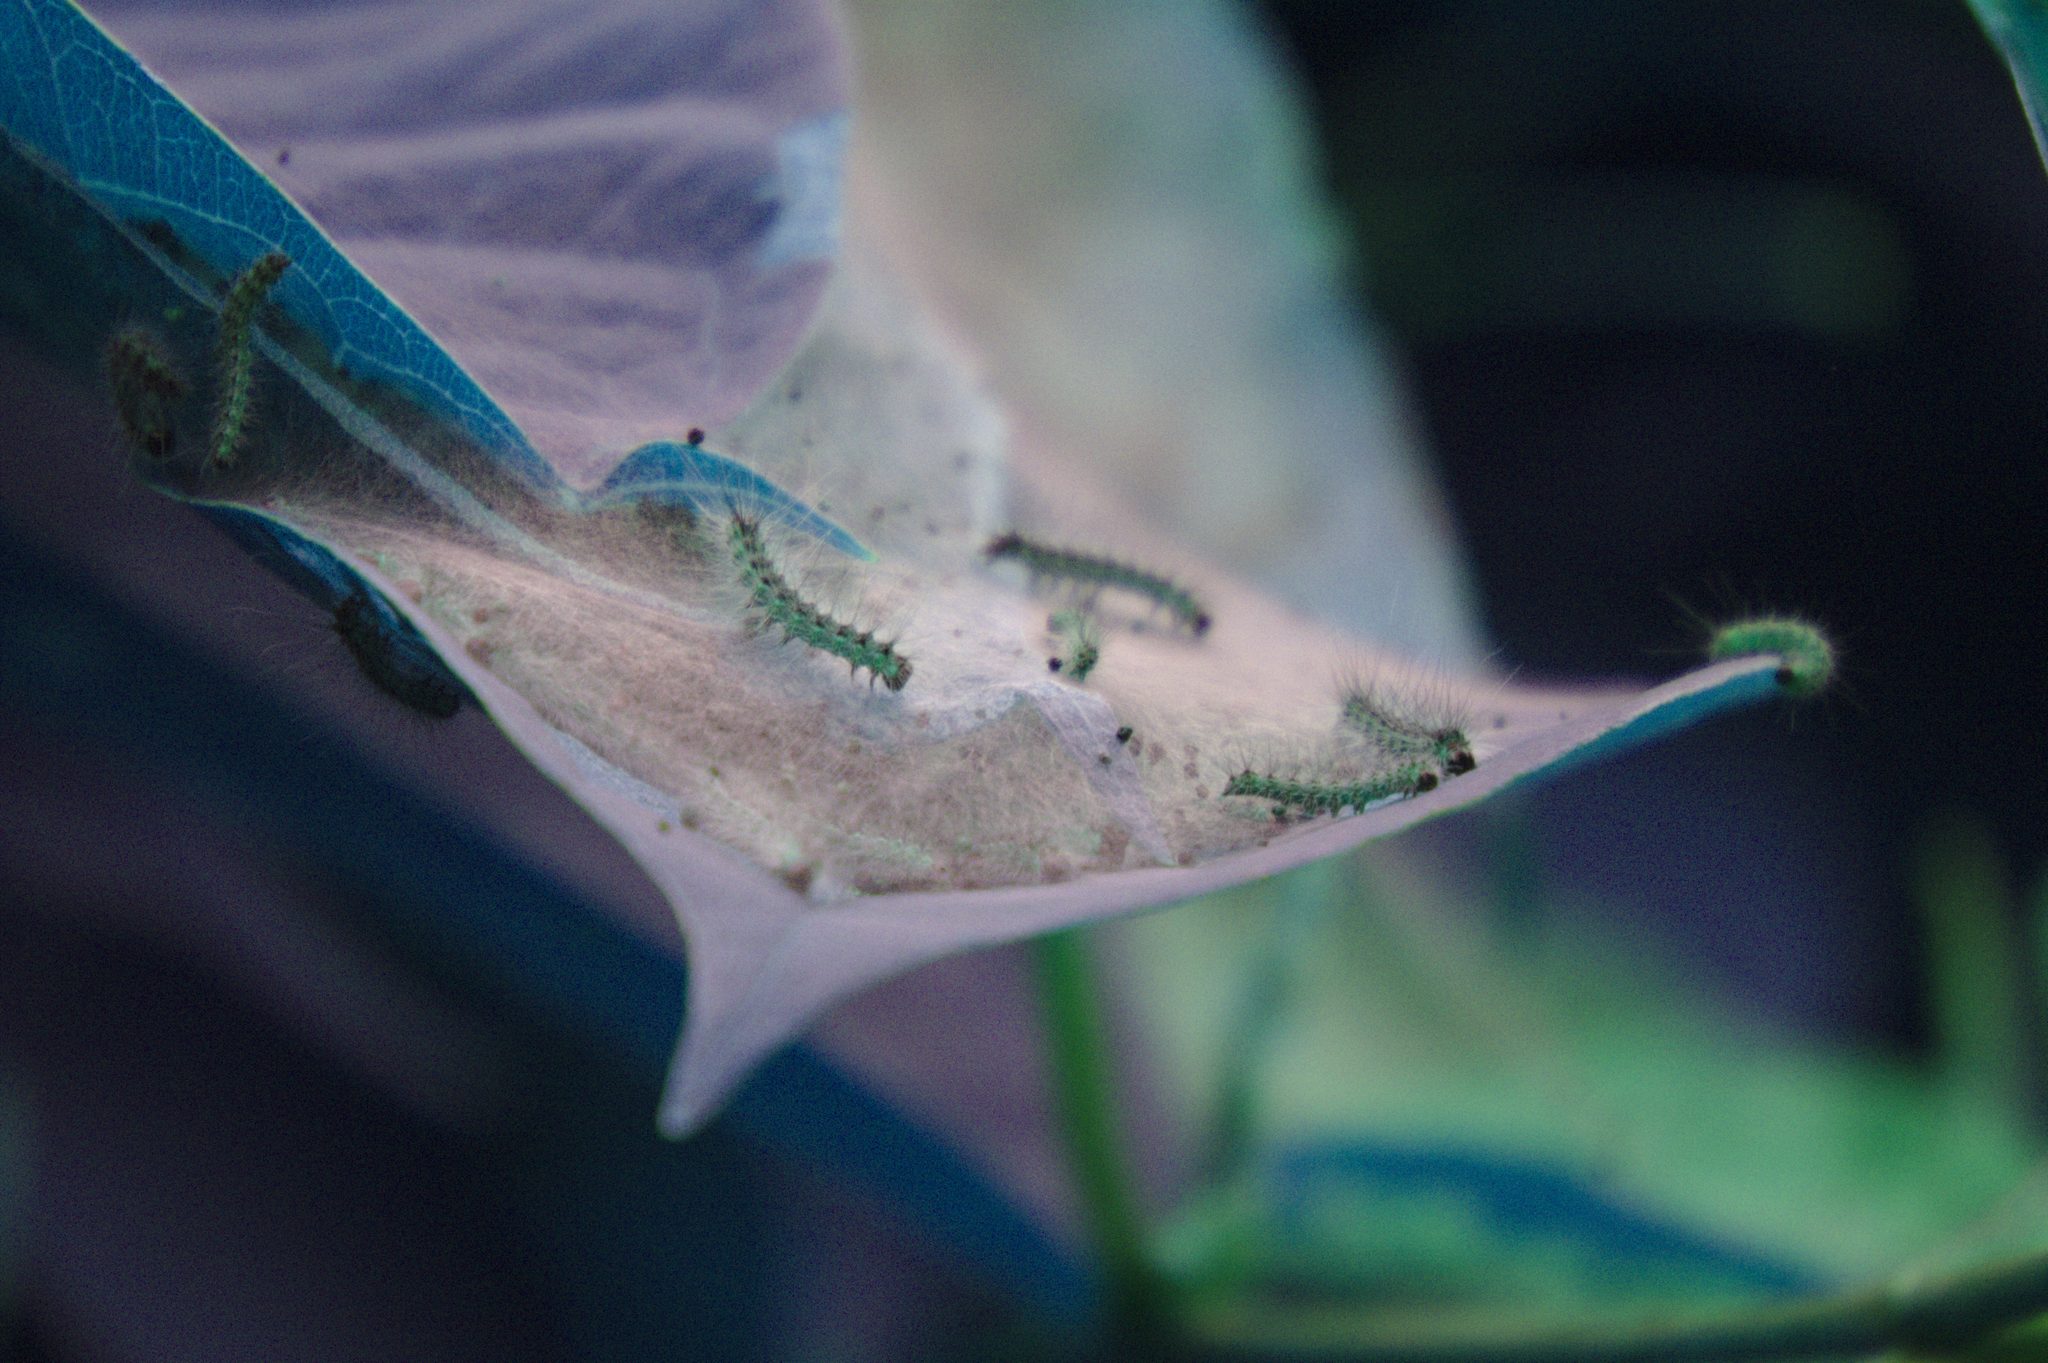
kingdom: Animalia
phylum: Arthropoda
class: Insecta
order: Lepidoptera
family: Erebidae
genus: Hyphantria
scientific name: Hyphantria cunea
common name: American white moth
